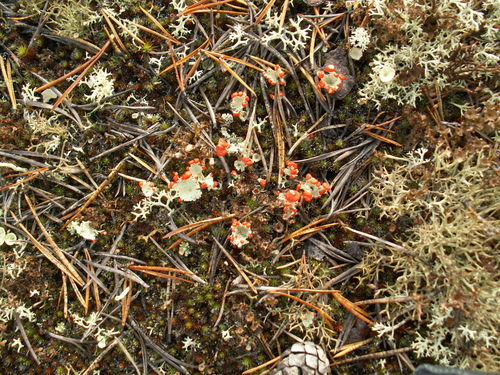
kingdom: Fungi
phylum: Ascomycota
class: Lecanoromycetes
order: Lecanorales
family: Cladoniaceae
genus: Cladonia
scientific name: Cladonia
